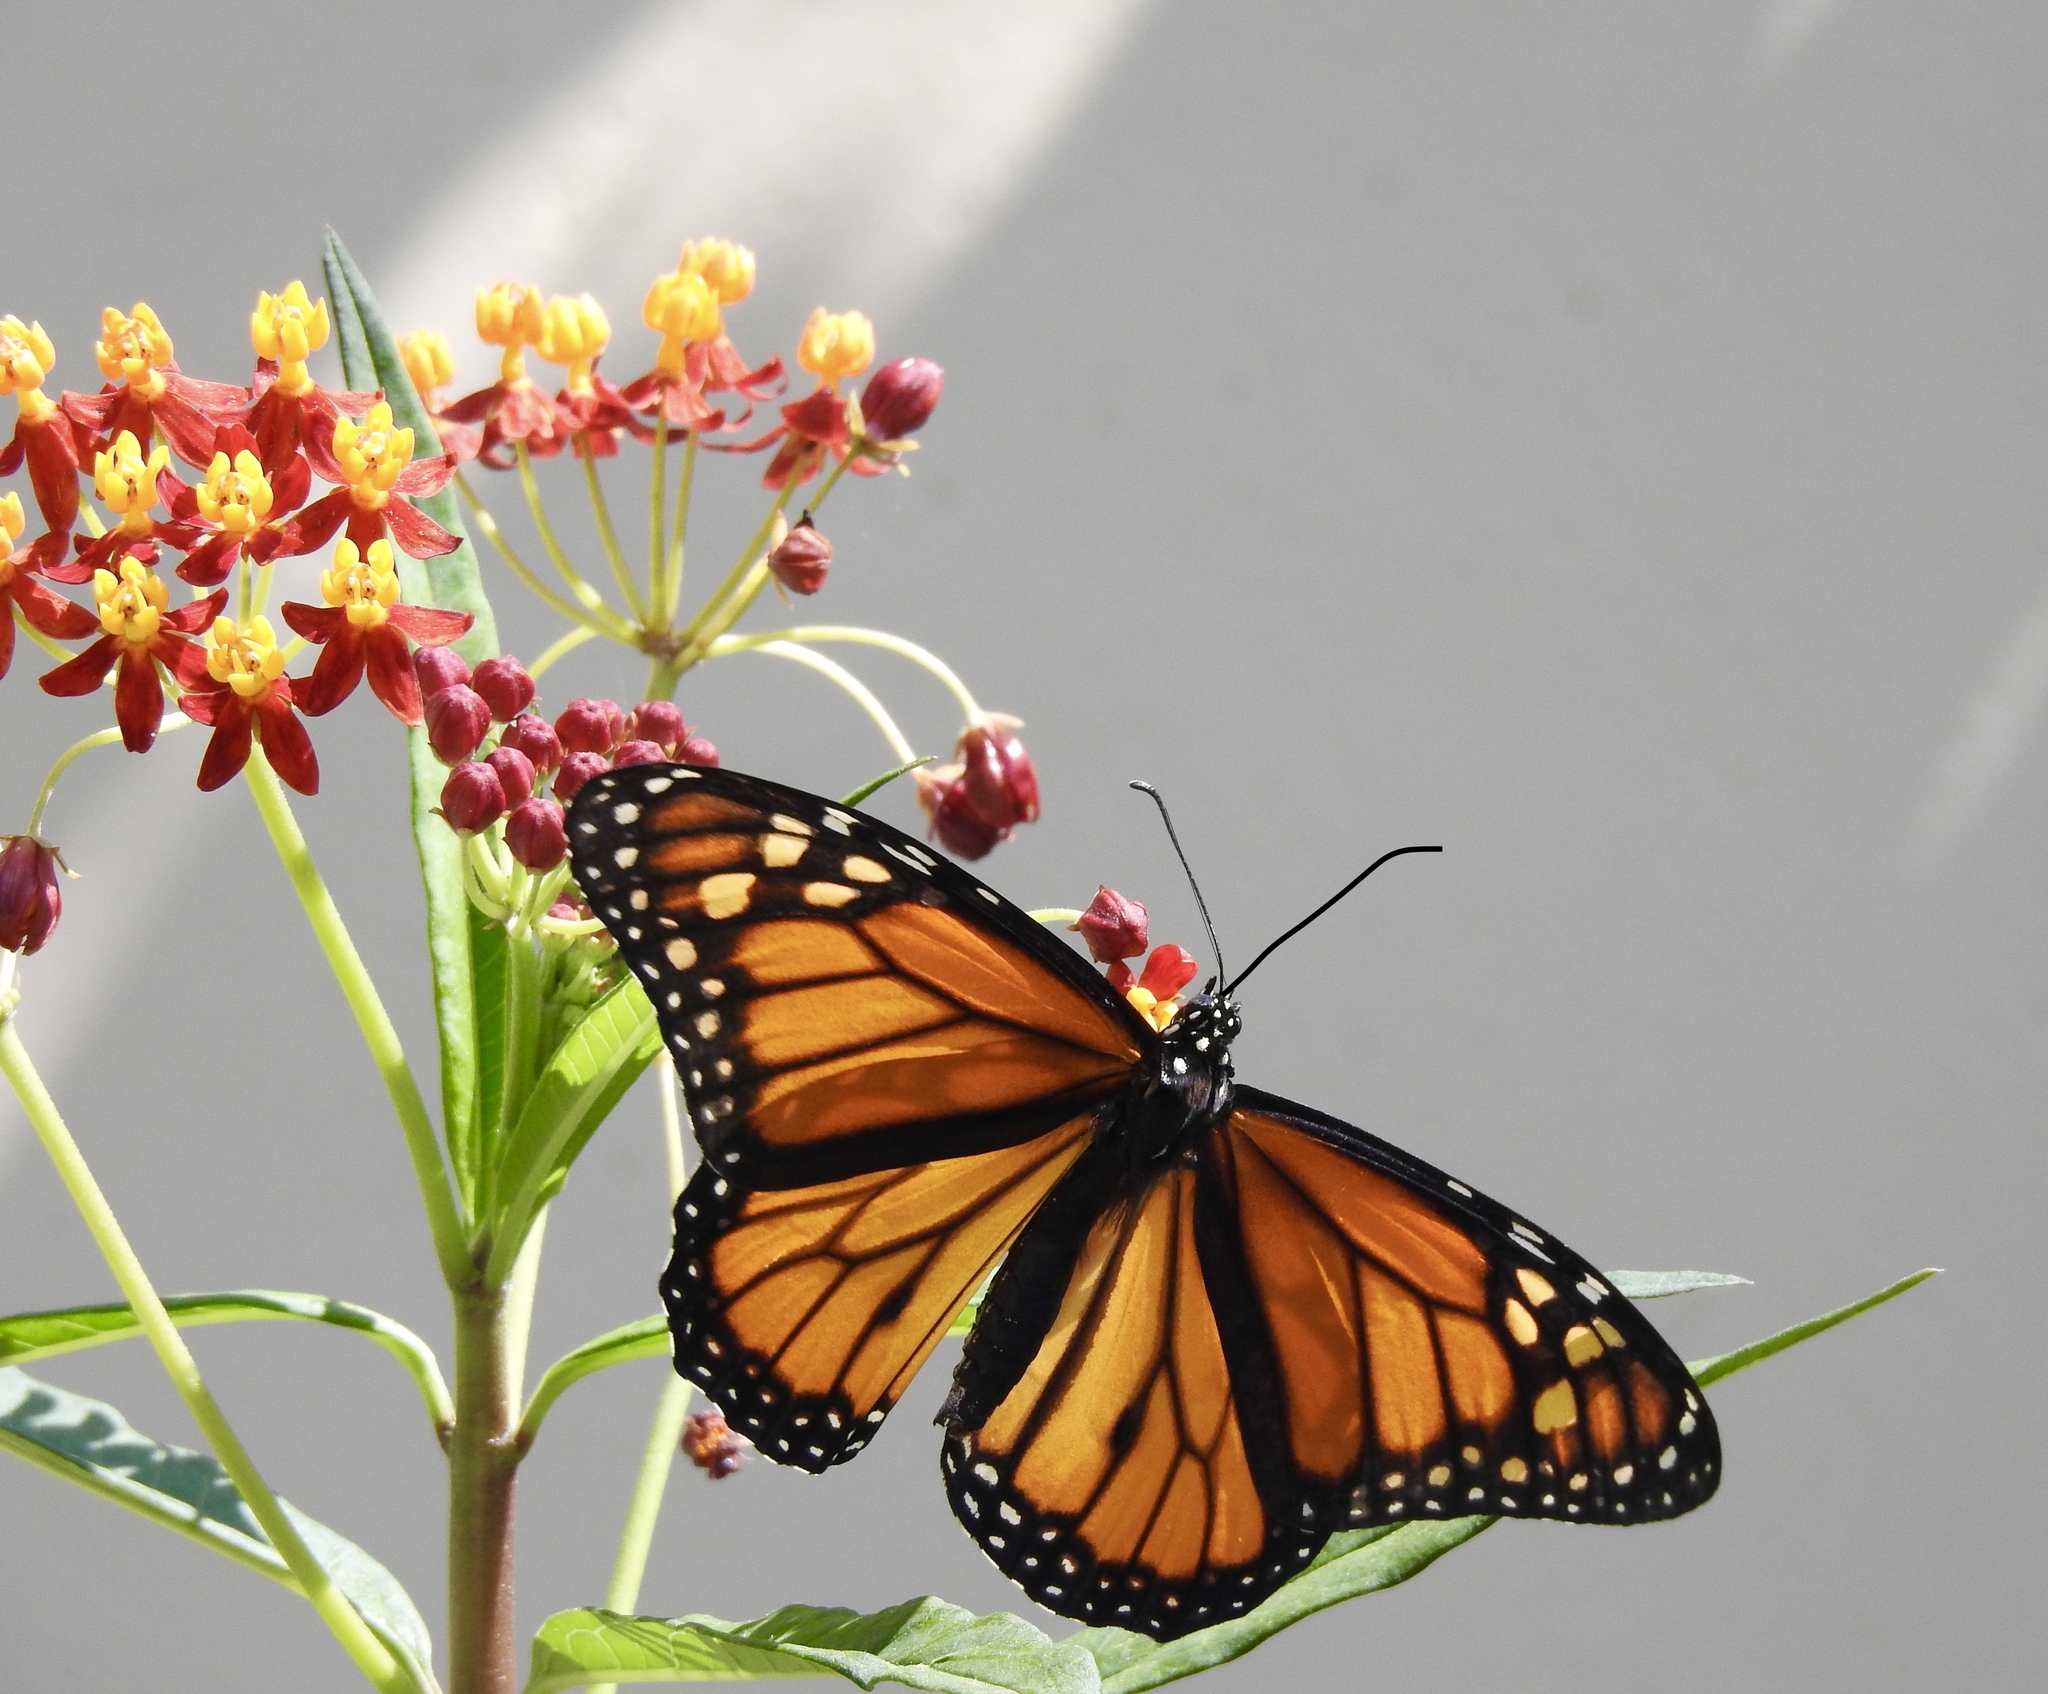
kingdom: Animalia
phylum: Arthropoda
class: Insecta
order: Lepidoptera
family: Nymphalidae
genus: Danaus
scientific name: Danaus plexippus
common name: Monarch
